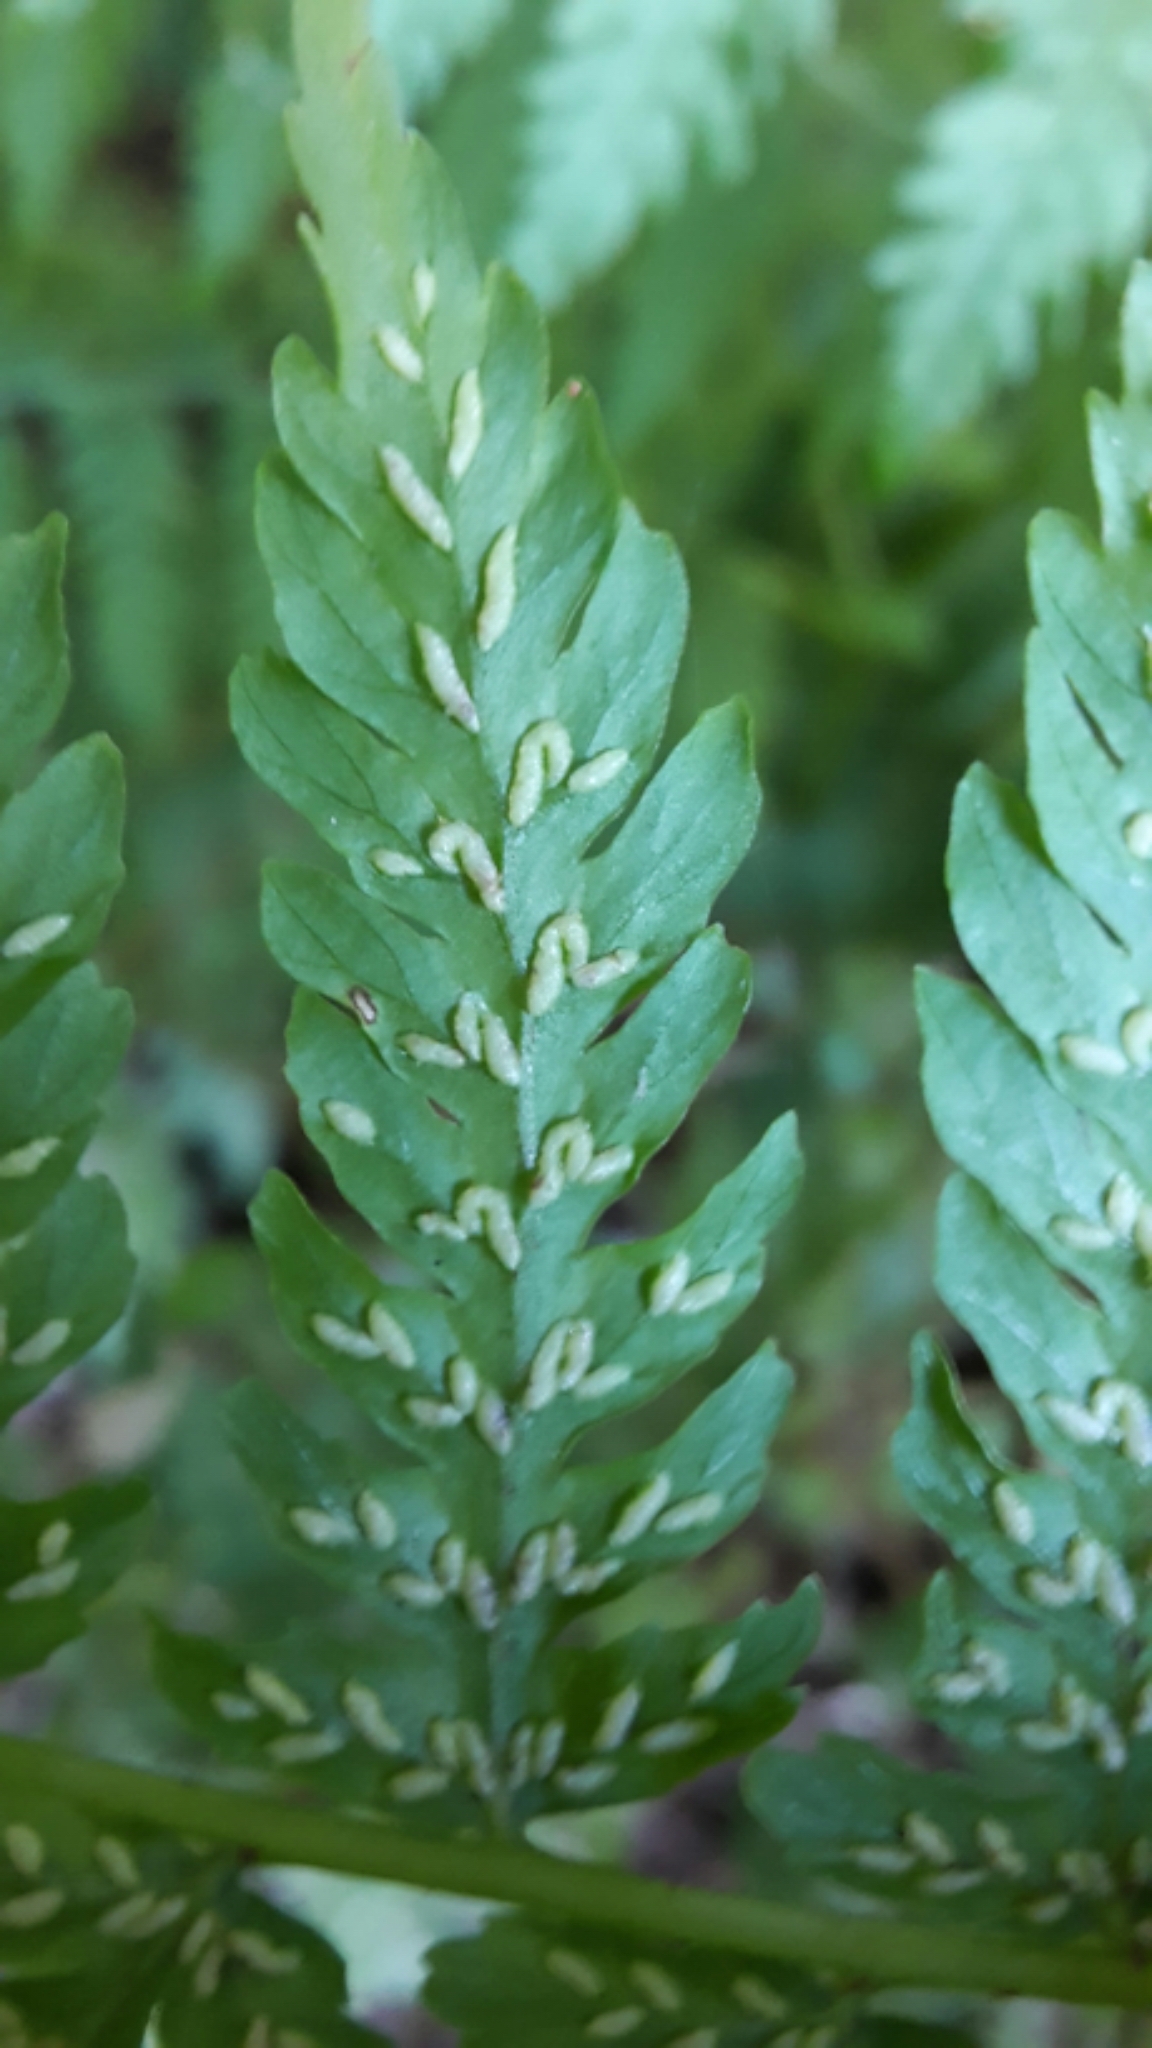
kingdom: Plantae
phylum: Tracheophyta
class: Polypodiopsida
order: Polypodiales
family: Athyriaceae
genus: Diplazium
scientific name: Diplazium australe
